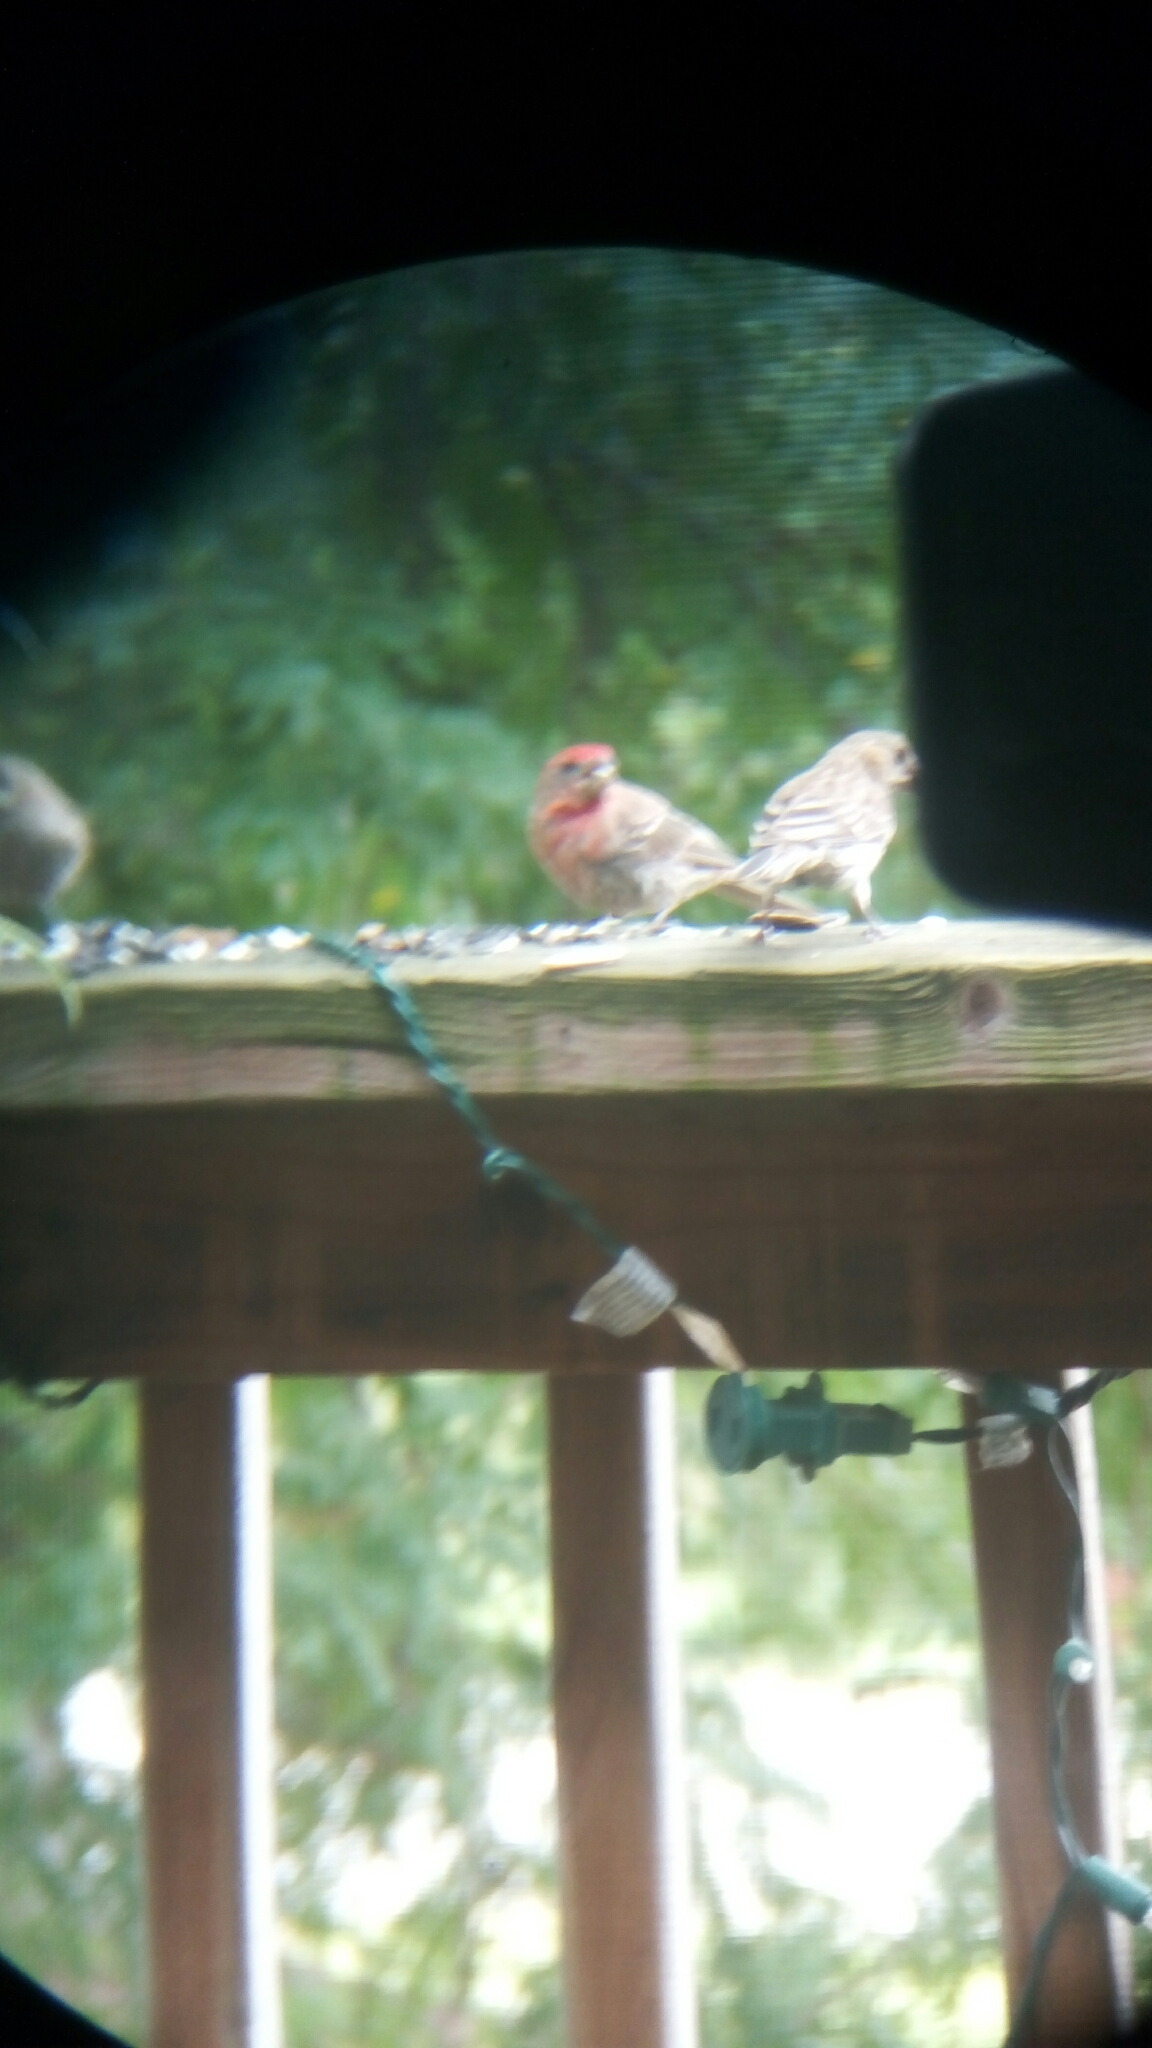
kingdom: Animalia
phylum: Chordata
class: Aves
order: Passeriformes
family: Fringillidae
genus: Haemorhous
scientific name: Haemorhous mexicanus
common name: House finch
